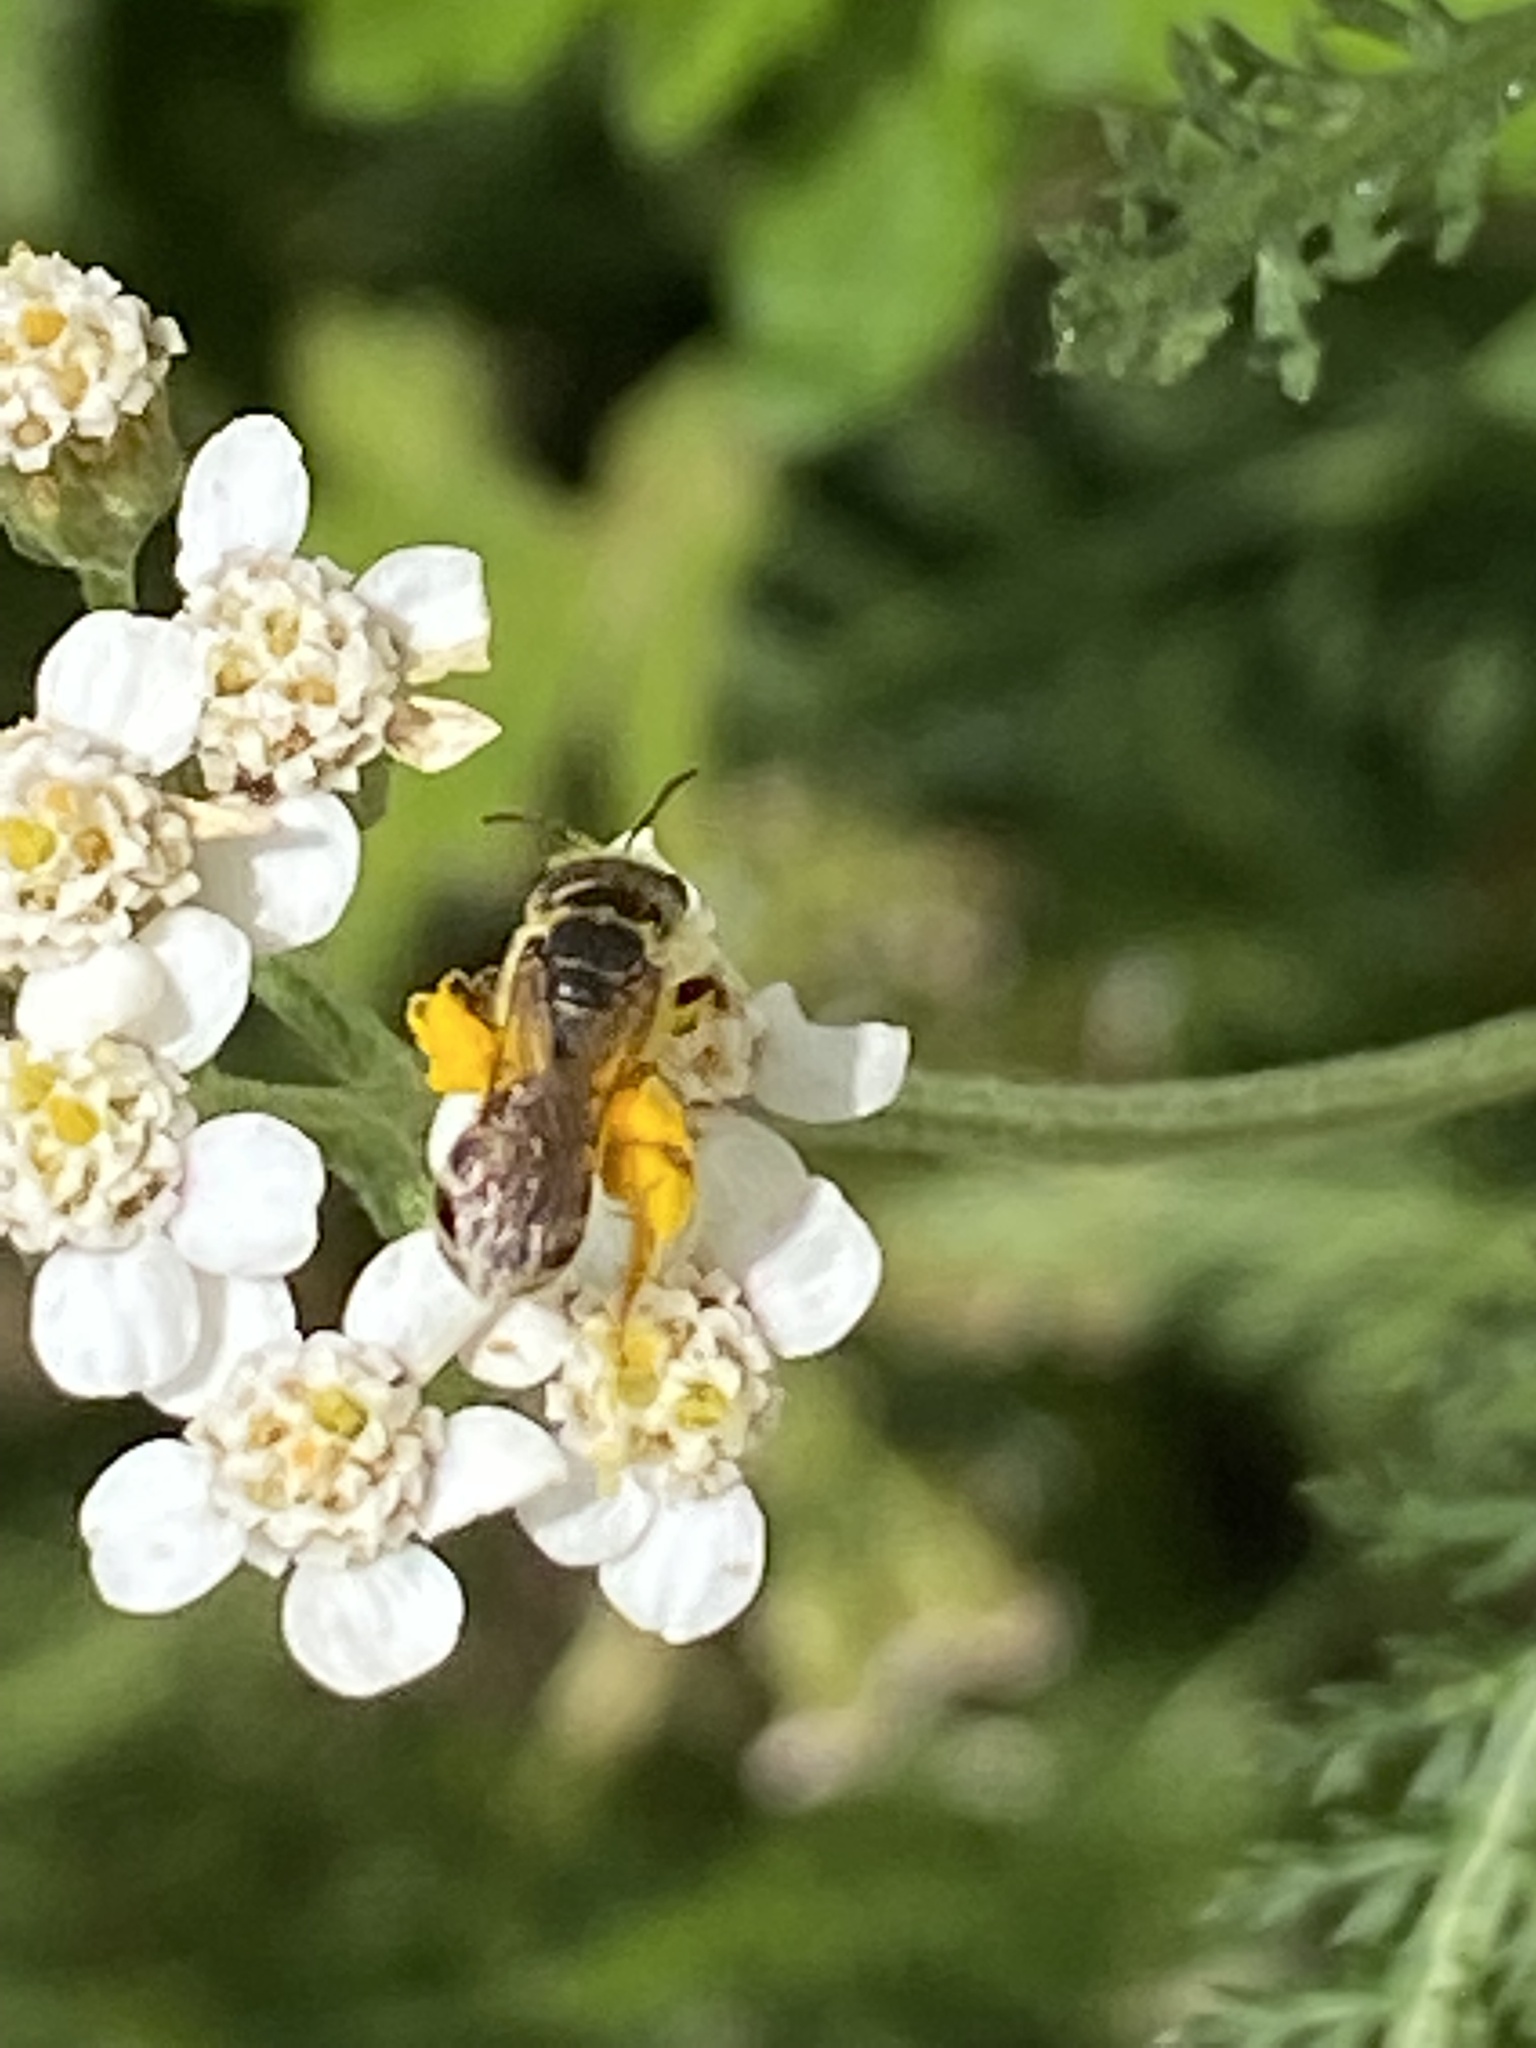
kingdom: Animalia
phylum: Arthropoda
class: Insecta
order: Hymenoptera
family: Halictidae
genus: Halictus
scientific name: Halictus ligatus
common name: Ligated furrow bee
